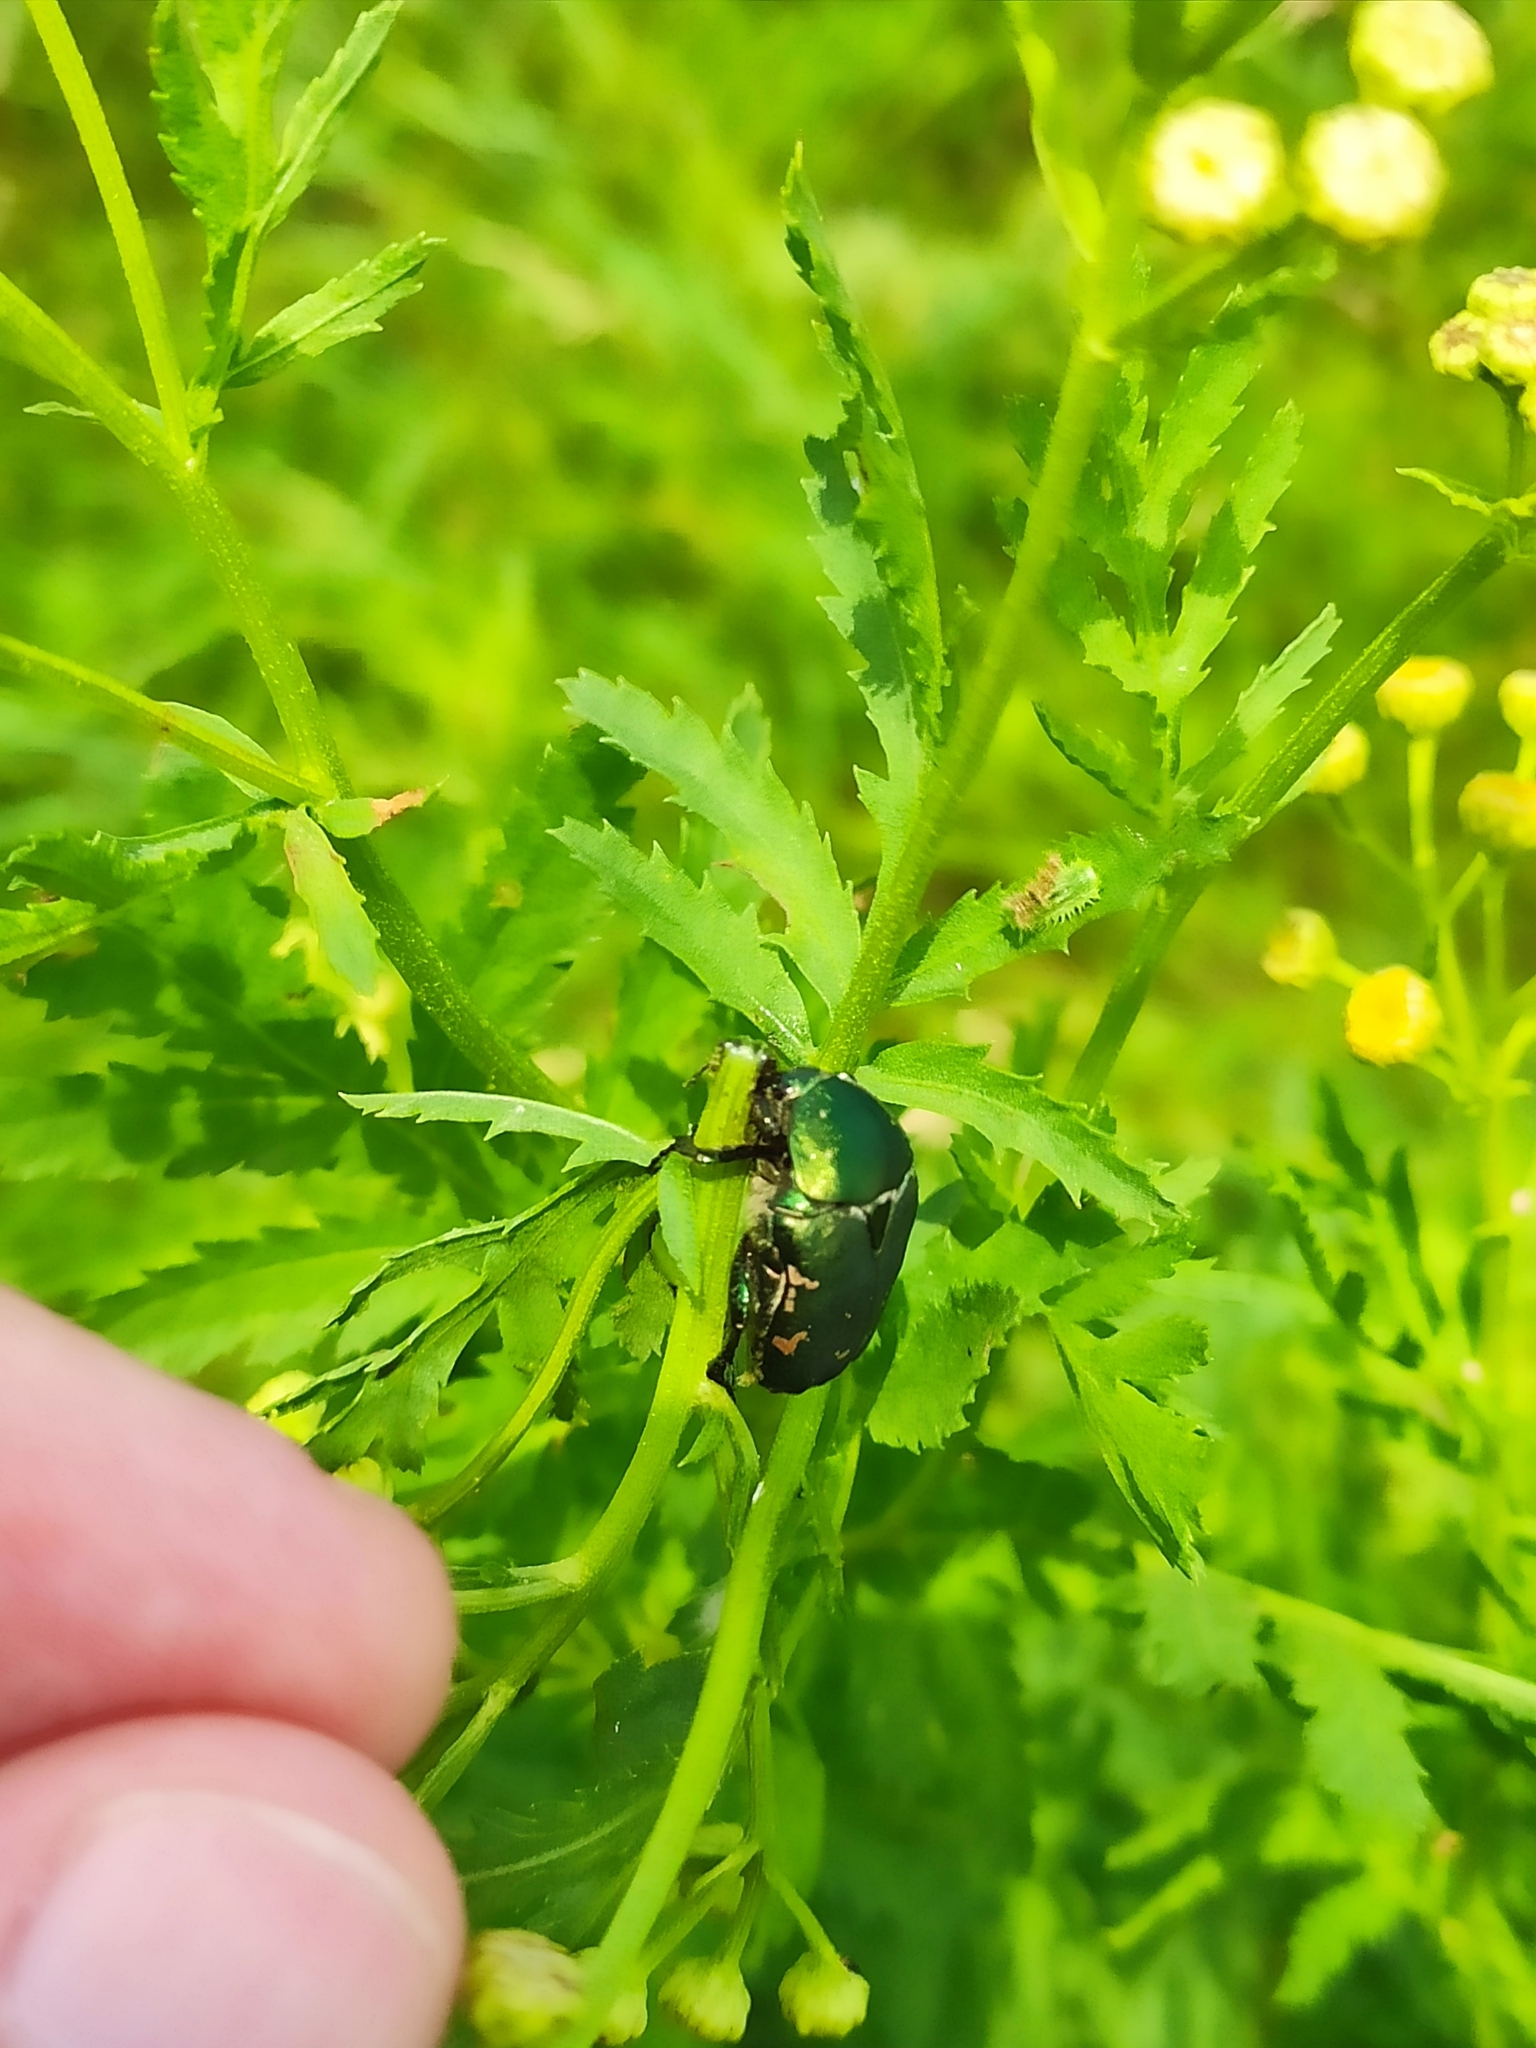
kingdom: Animalia
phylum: Arthropoda
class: Insecta
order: Coleoptera
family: Scarabaeidae
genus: Protaetia
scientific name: Protaetia ungarica
